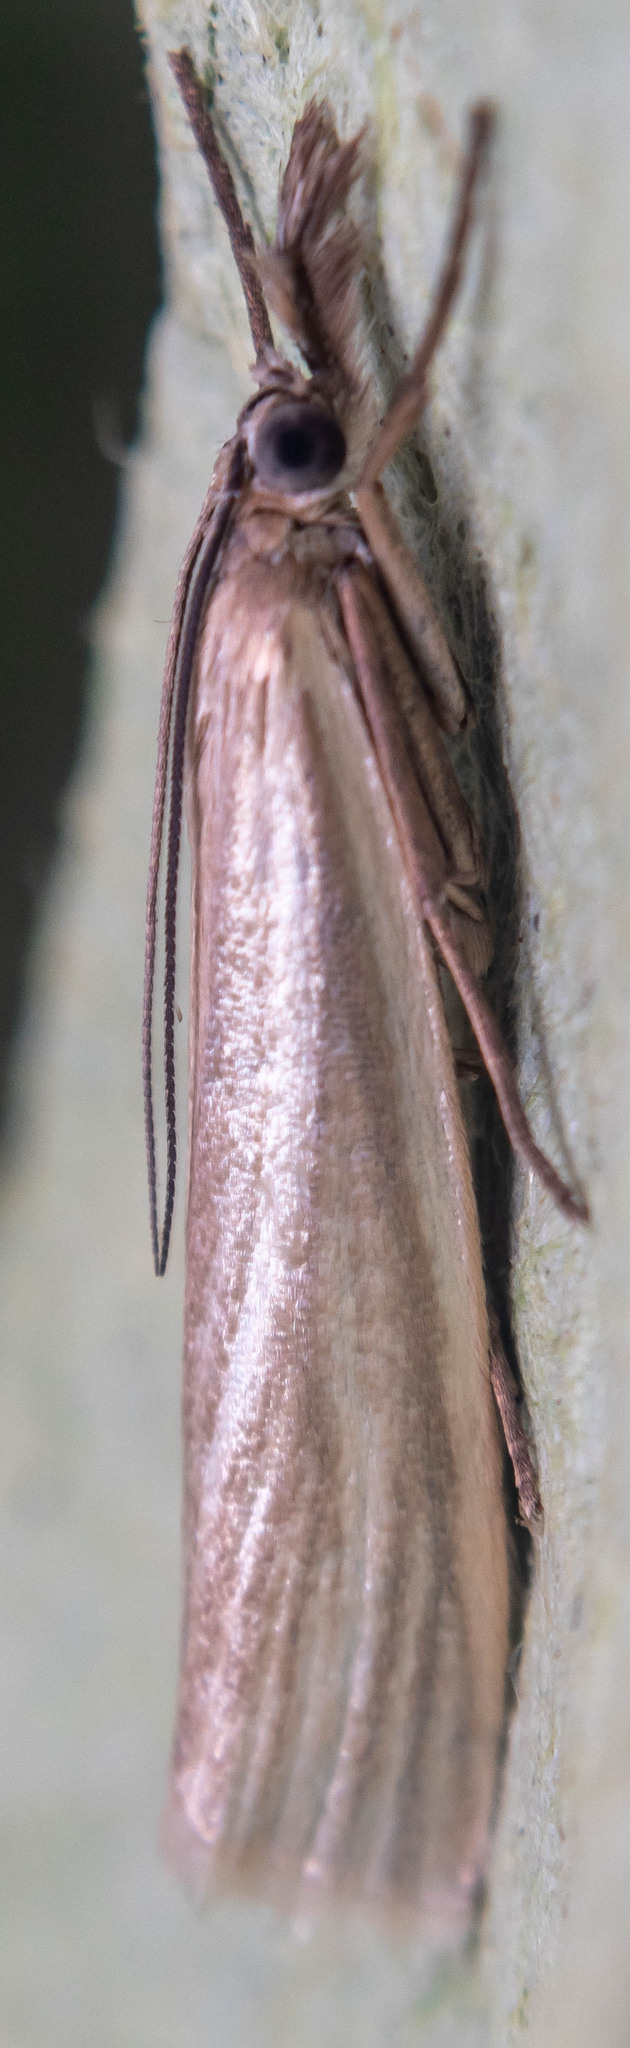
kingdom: Animalia
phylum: Arthropoda
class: Insecta
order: Lepidoptera
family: Crambidae
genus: Crambus
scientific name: Crambus perlellus
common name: Yellow satin veneer
